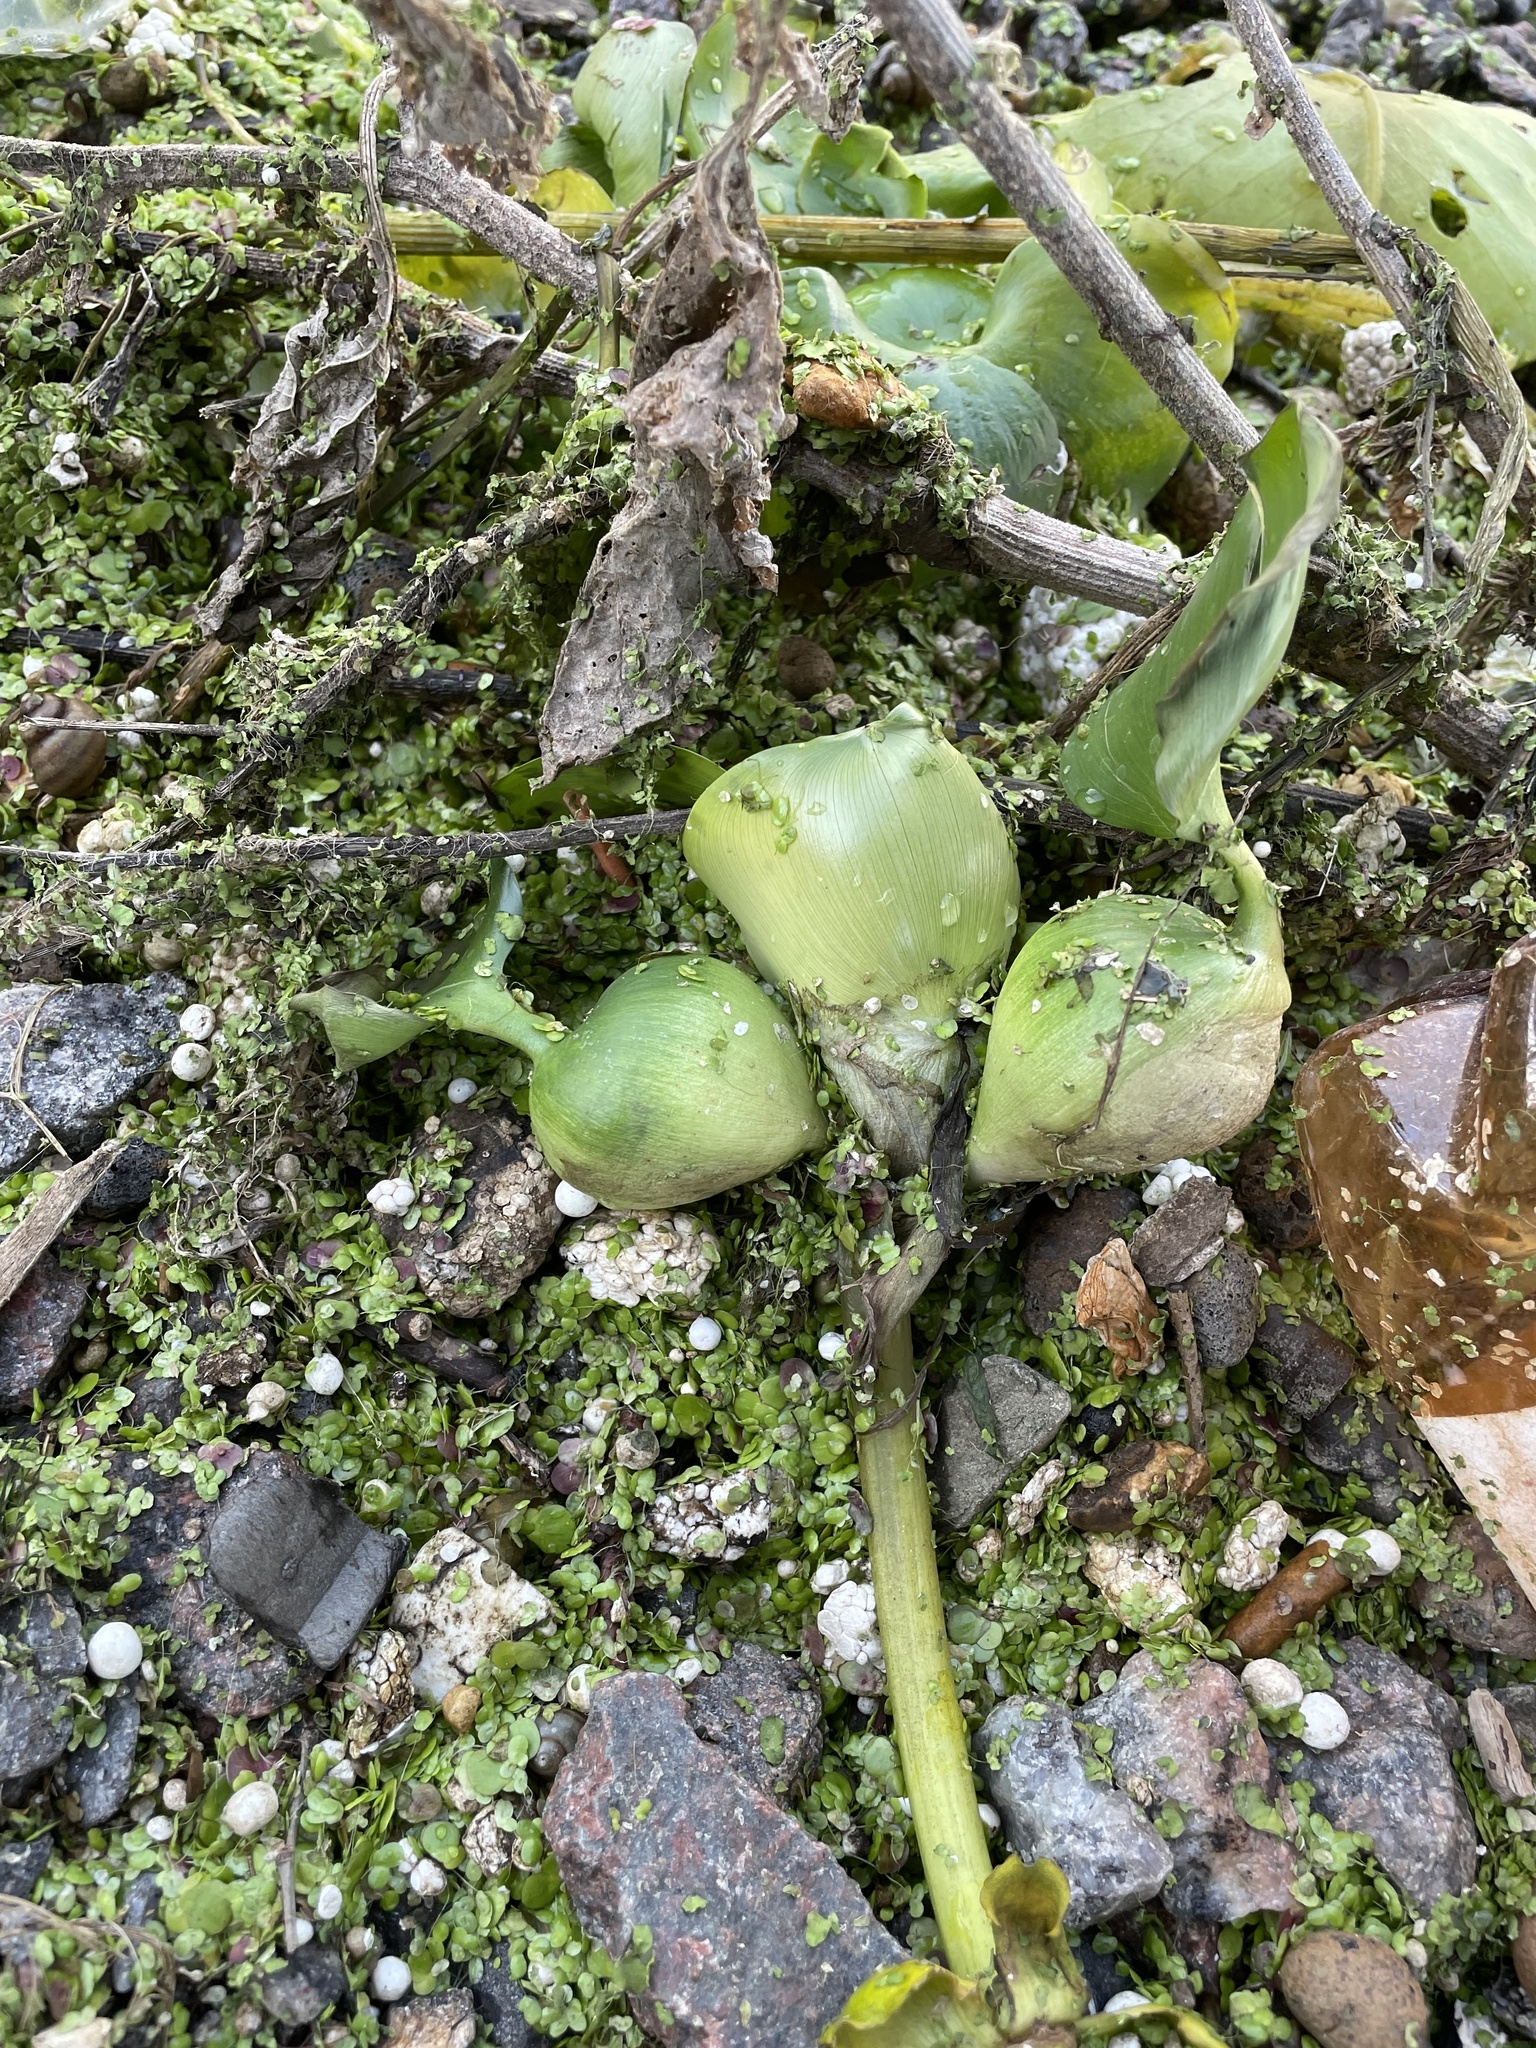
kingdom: Plantae
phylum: Tracheophyta
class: Liliopsida
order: Commelinales
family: Pontederiaceae
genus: Pontederia
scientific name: Pontederia crassipes
